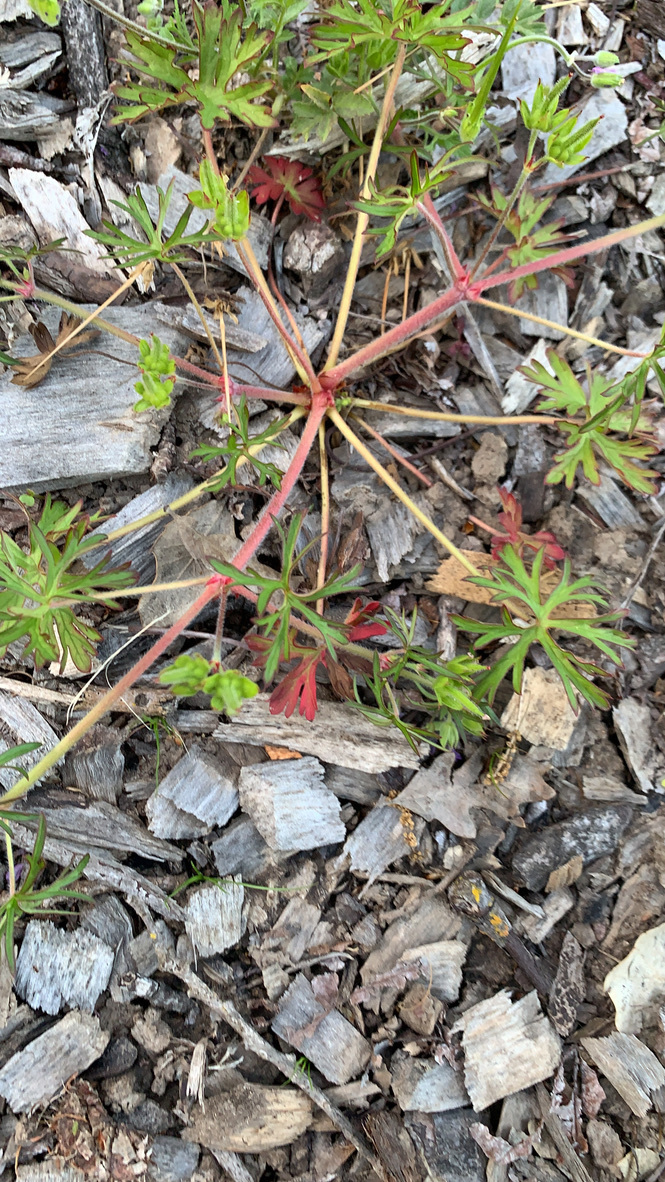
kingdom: Plantae
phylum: Tracheophyta
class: Magnoliopsida
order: Geraniales
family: Geraniaceae
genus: Geranium
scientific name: Geranium dissectum
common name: Cut-leaved crane's-bill
